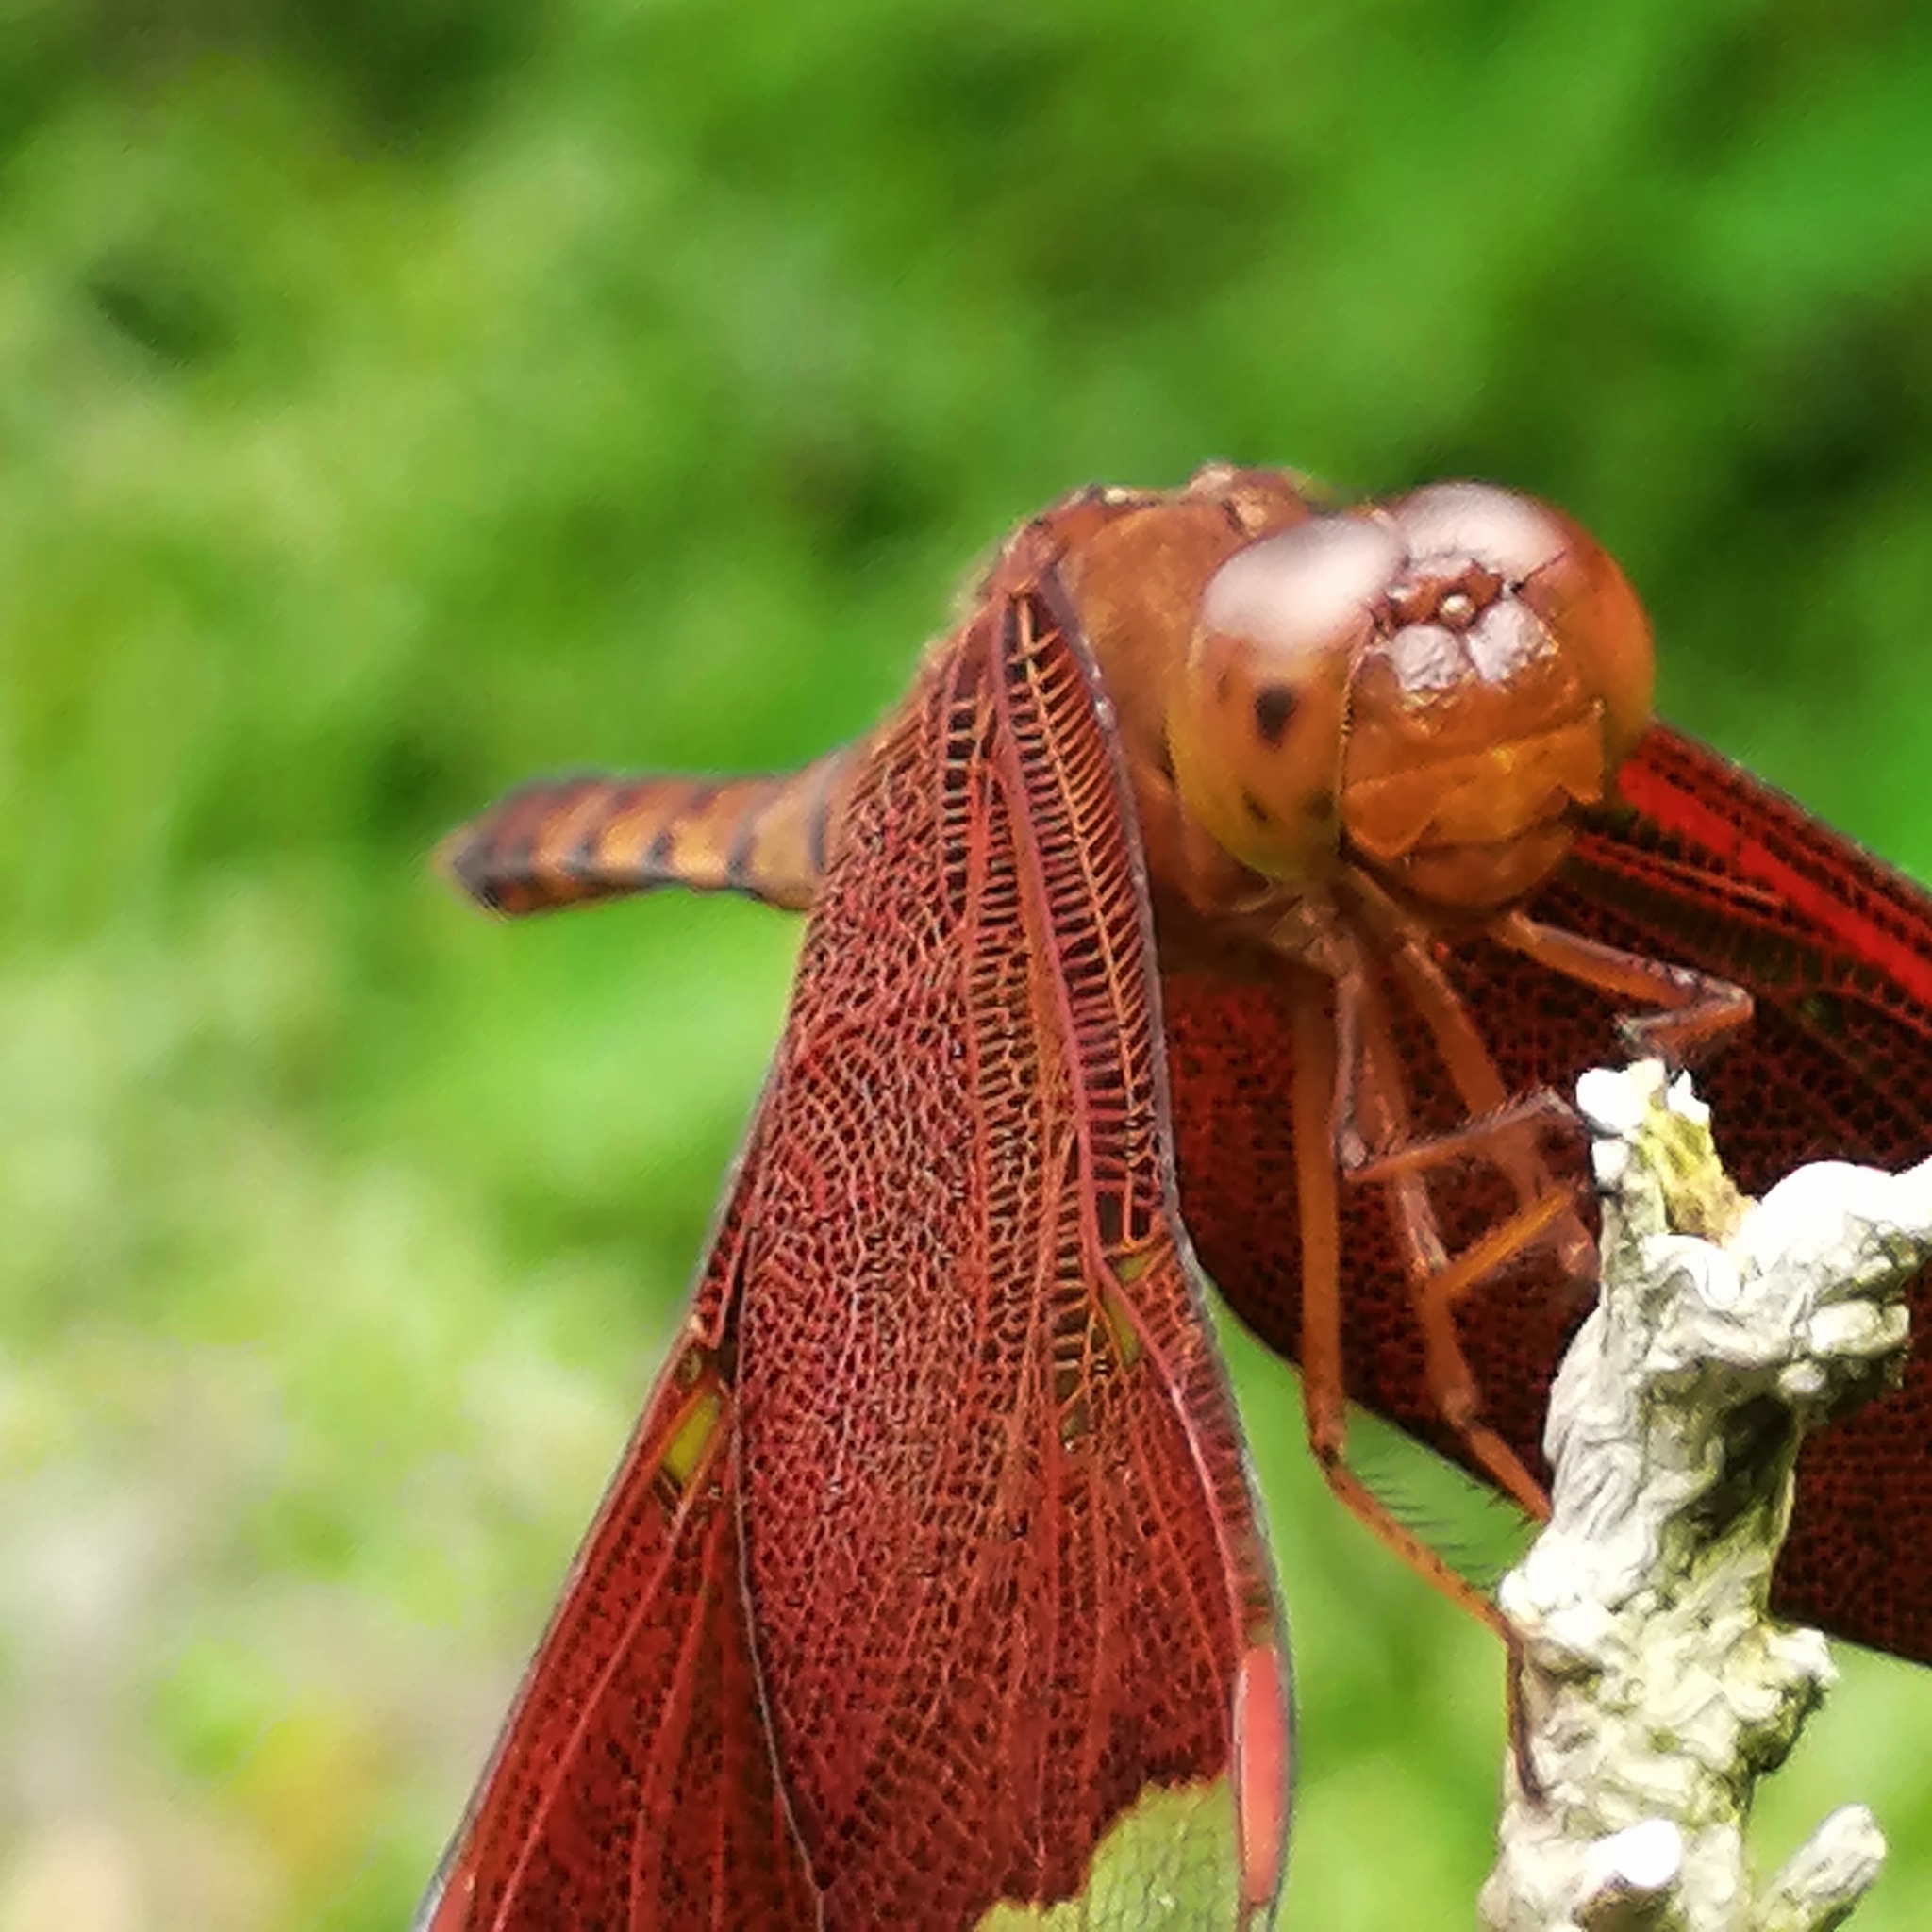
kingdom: Animalia
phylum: Arthropoda
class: Insecta
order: Odonata
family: Libellulidae
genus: Neurothemis
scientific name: Neurothemis fulvia
